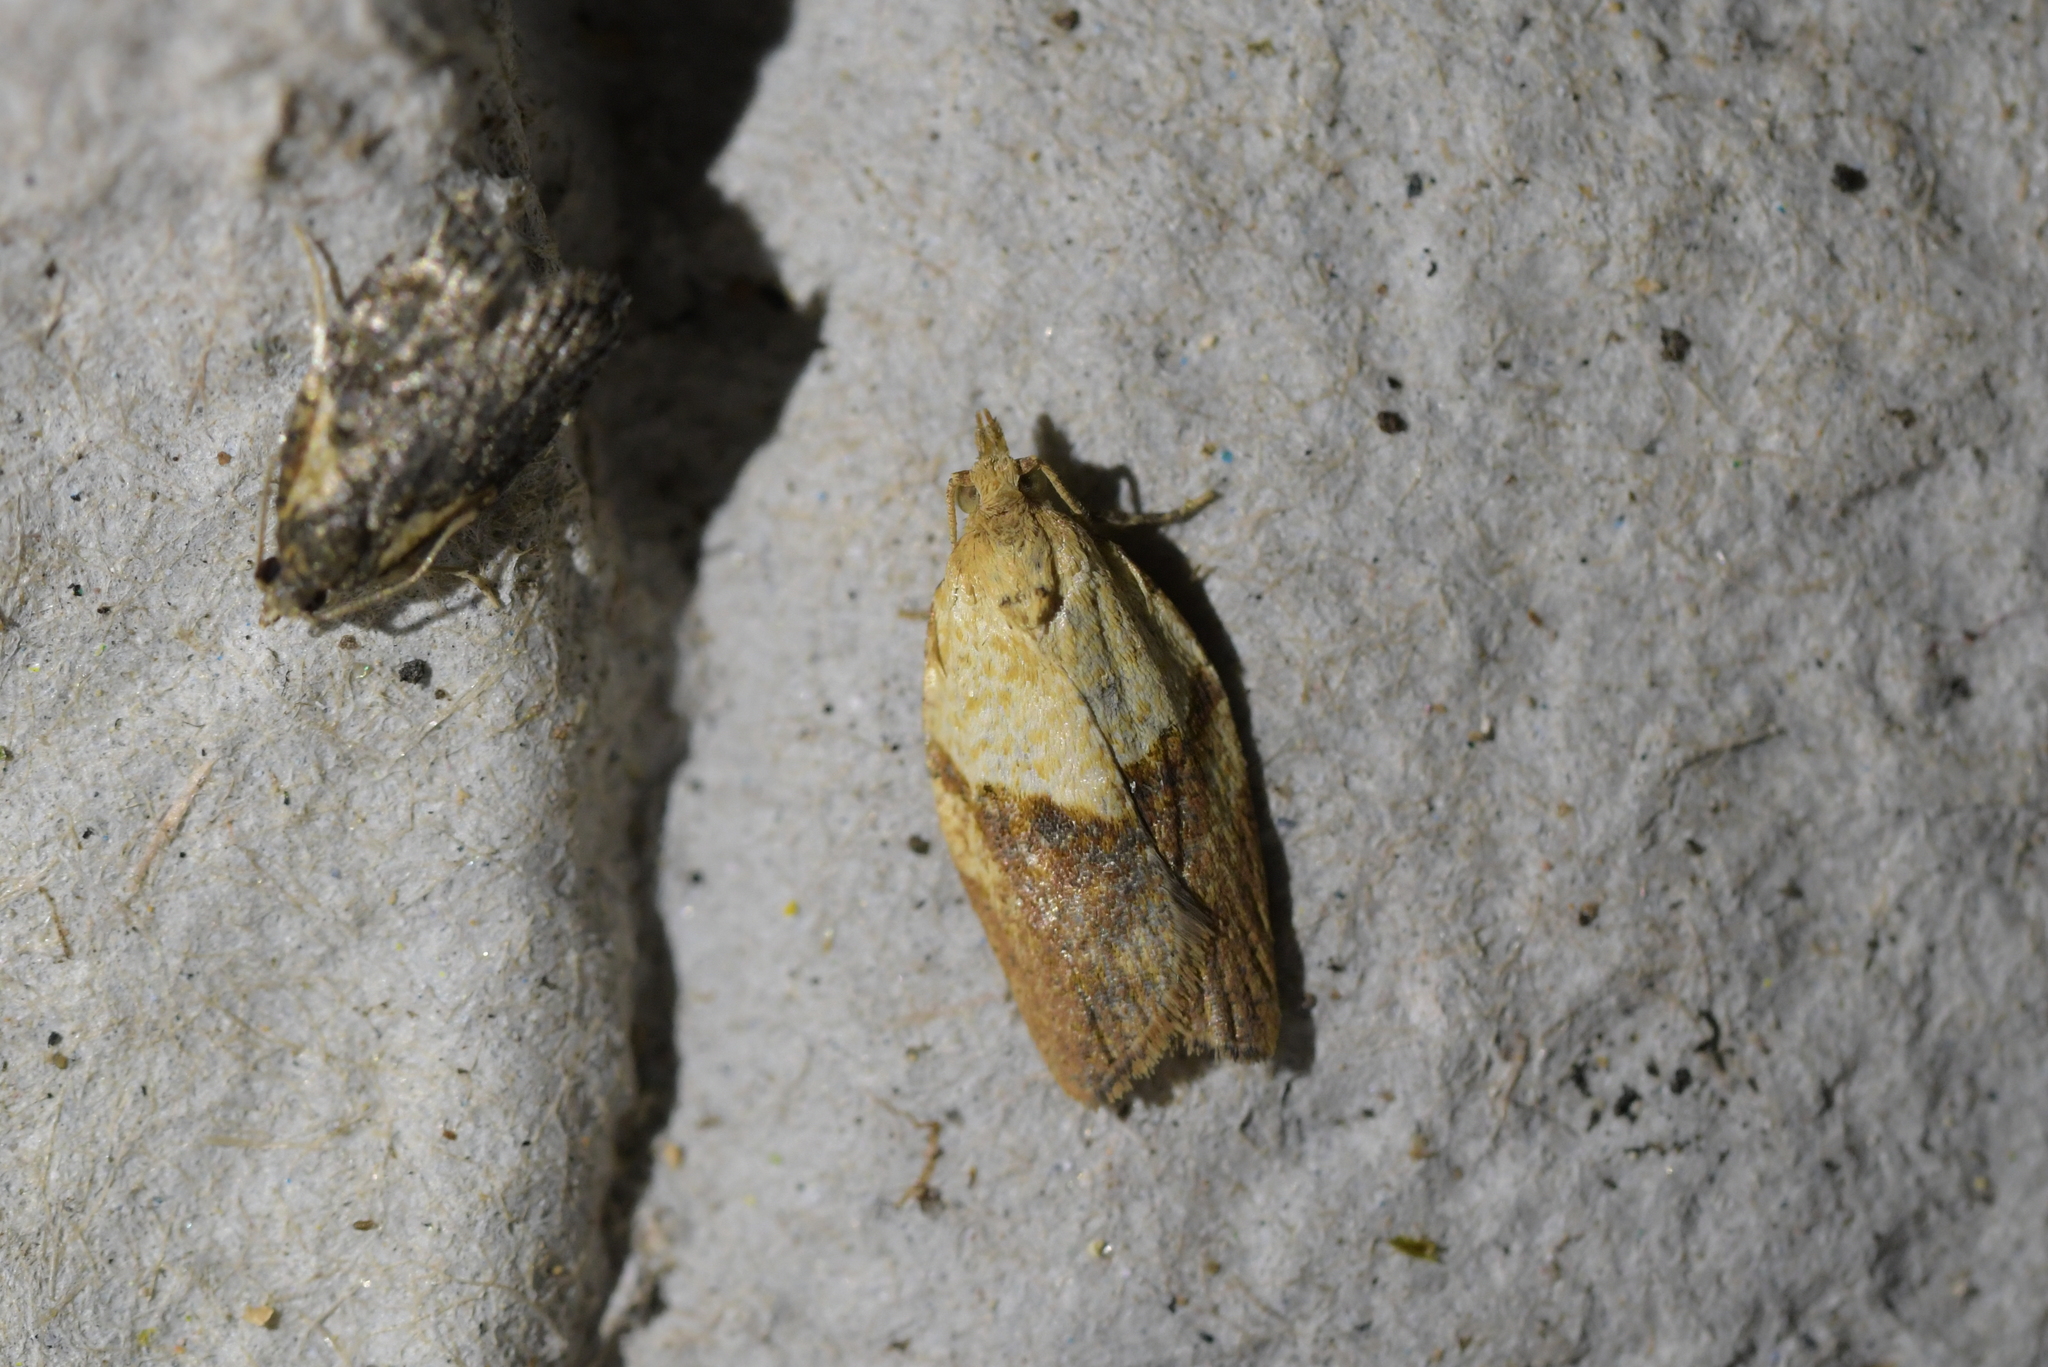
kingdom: Animalia
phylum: Arthropoda
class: Insecta
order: Lepidoptera
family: Tortricidae
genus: Epiphyas
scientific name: Epiphyas postvittana
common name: Light brown apple moth
